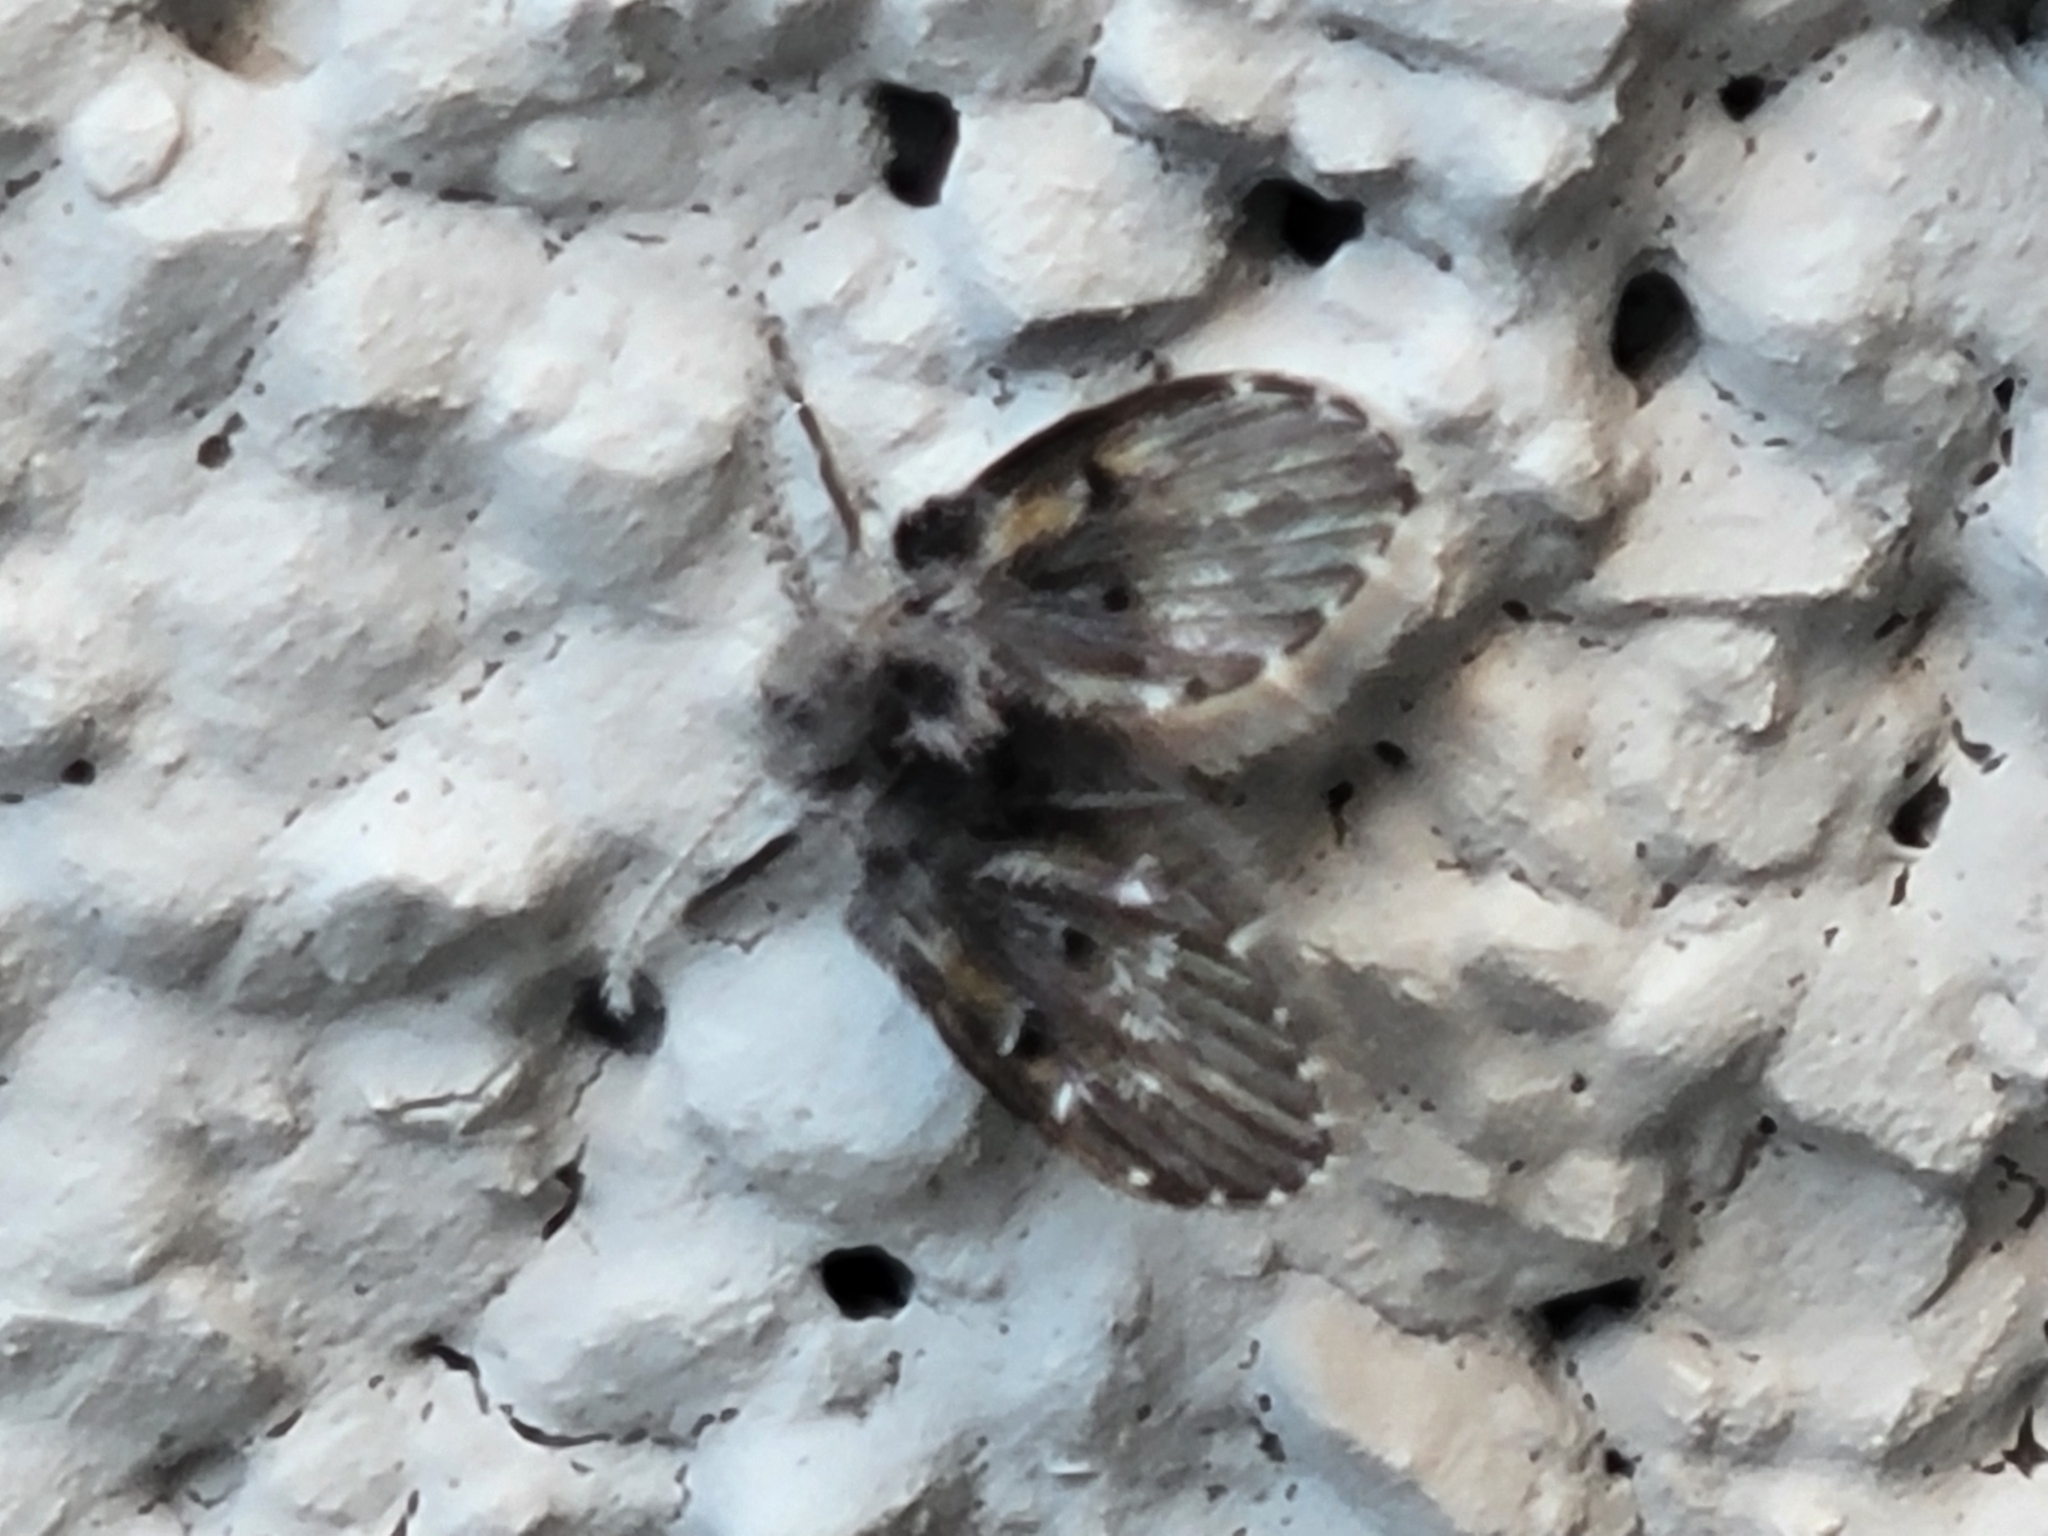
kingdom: Animalia
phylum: Arthropoda
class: Insecta
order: Diptera
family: Psychodidae
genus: Clogmia
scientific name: Clogmia albipunctatus
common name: White-spotted moth fly
